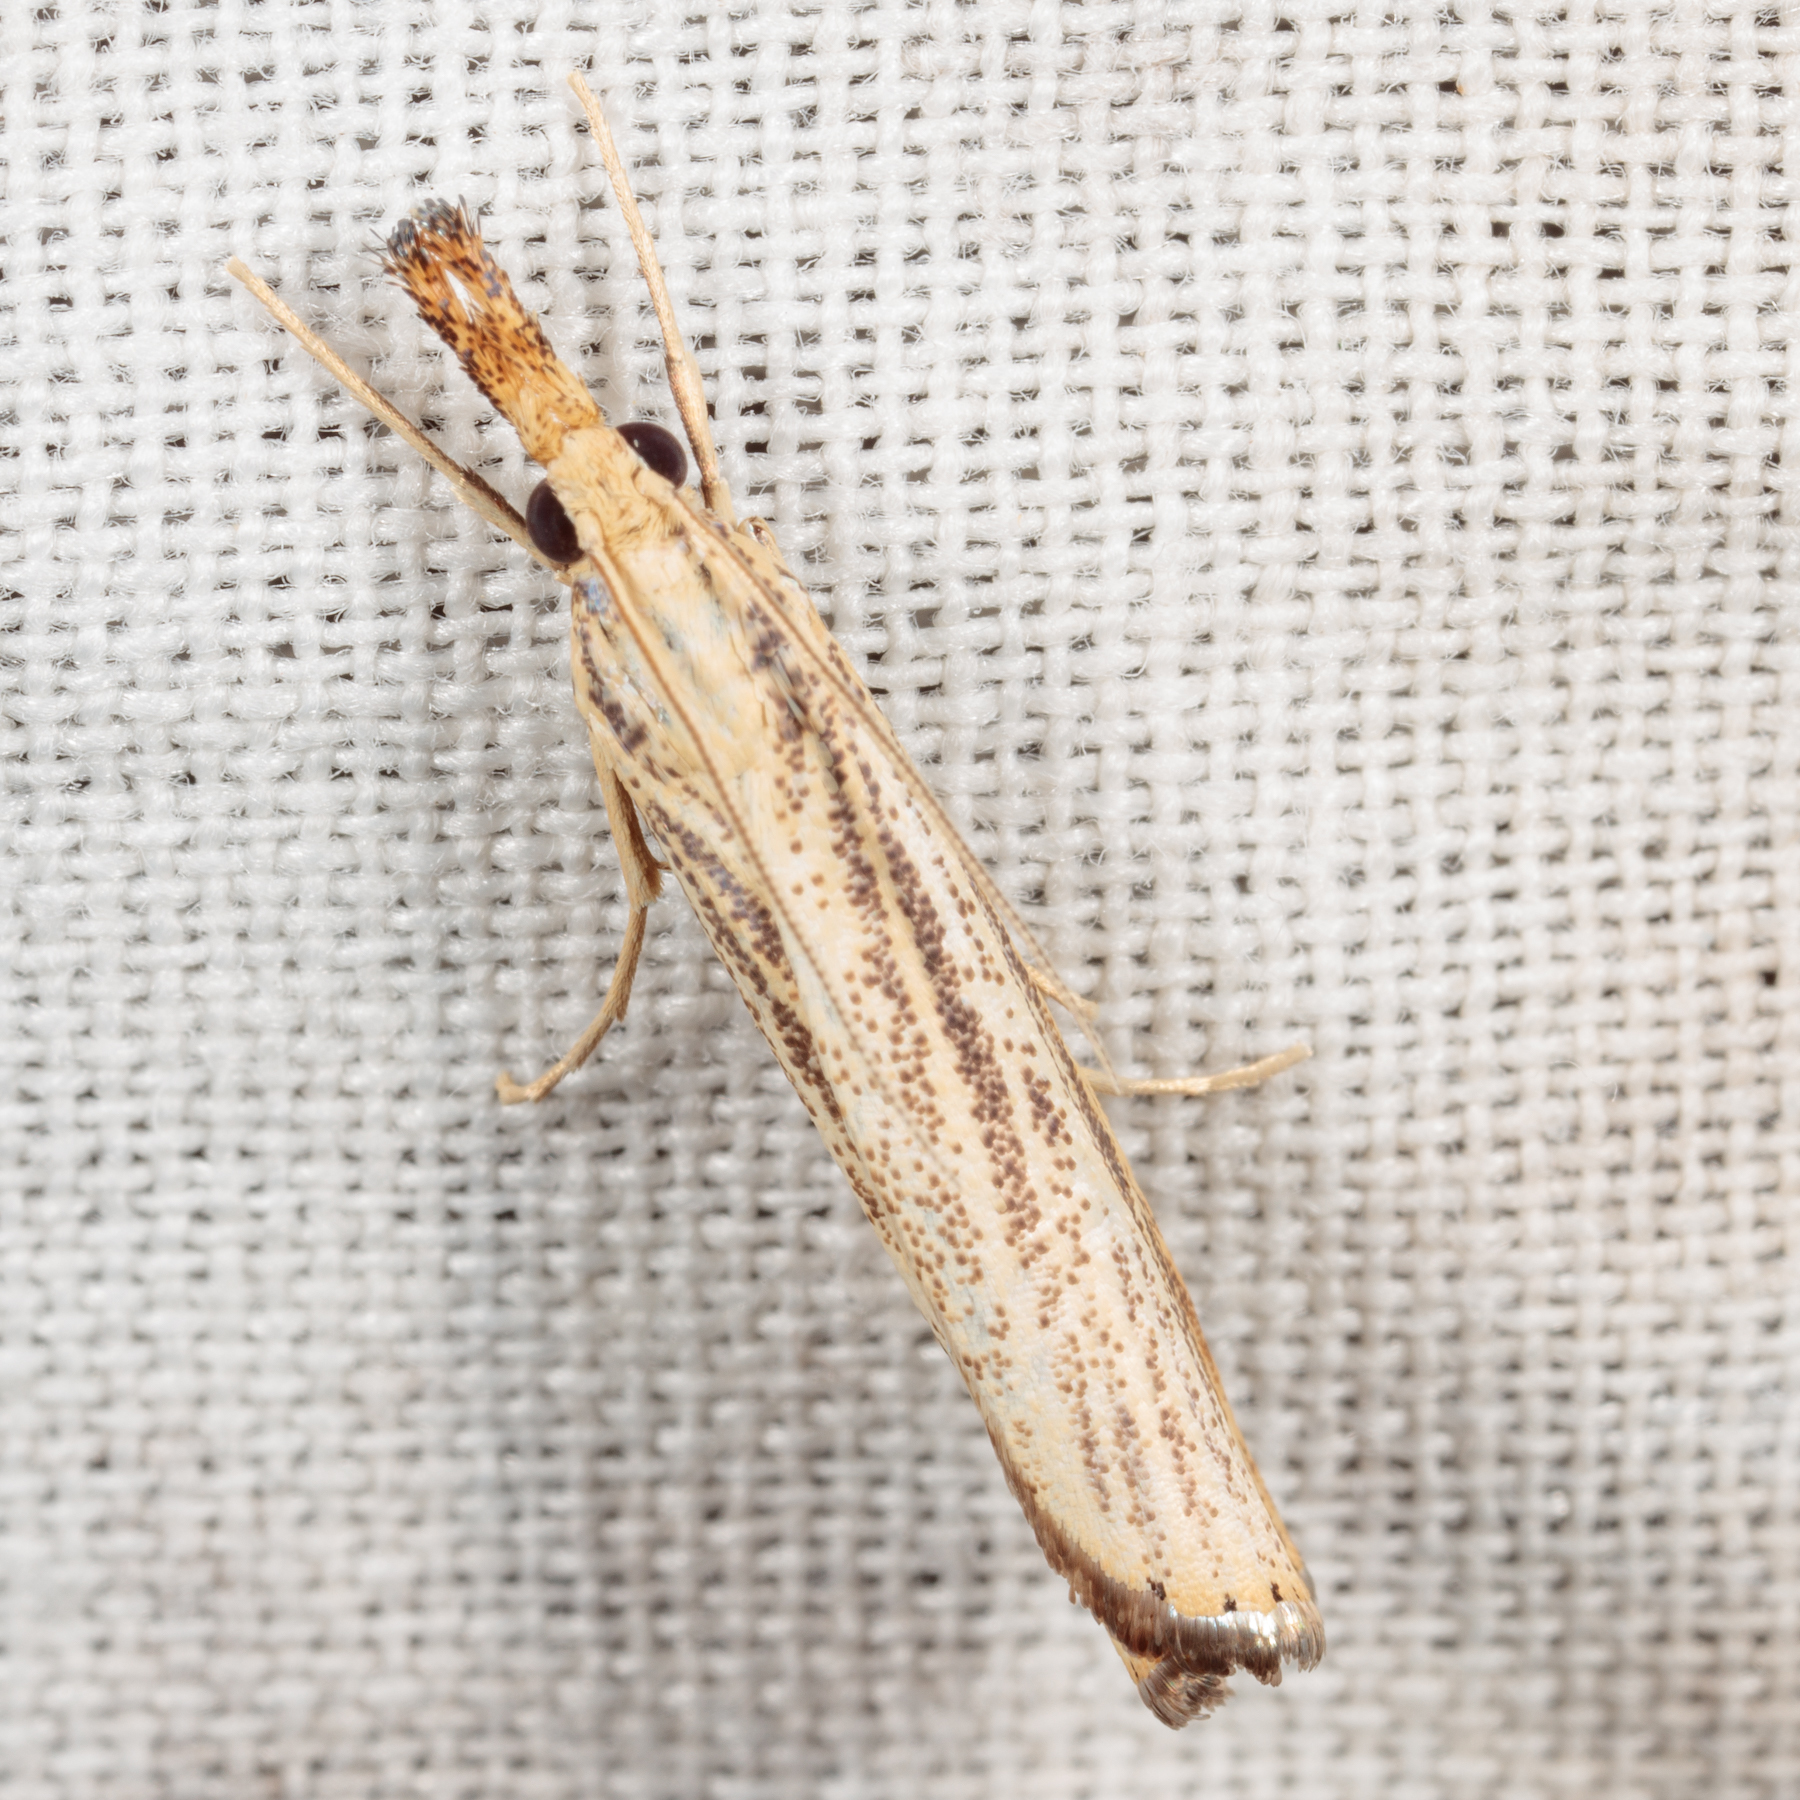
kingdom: Animalia
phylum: Arthropoda
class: Insecta
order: Lepidoptera
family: Crambidae
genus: Agriphila
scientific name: Agriphila vulgivagellus
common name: Vagabond crambus moth
